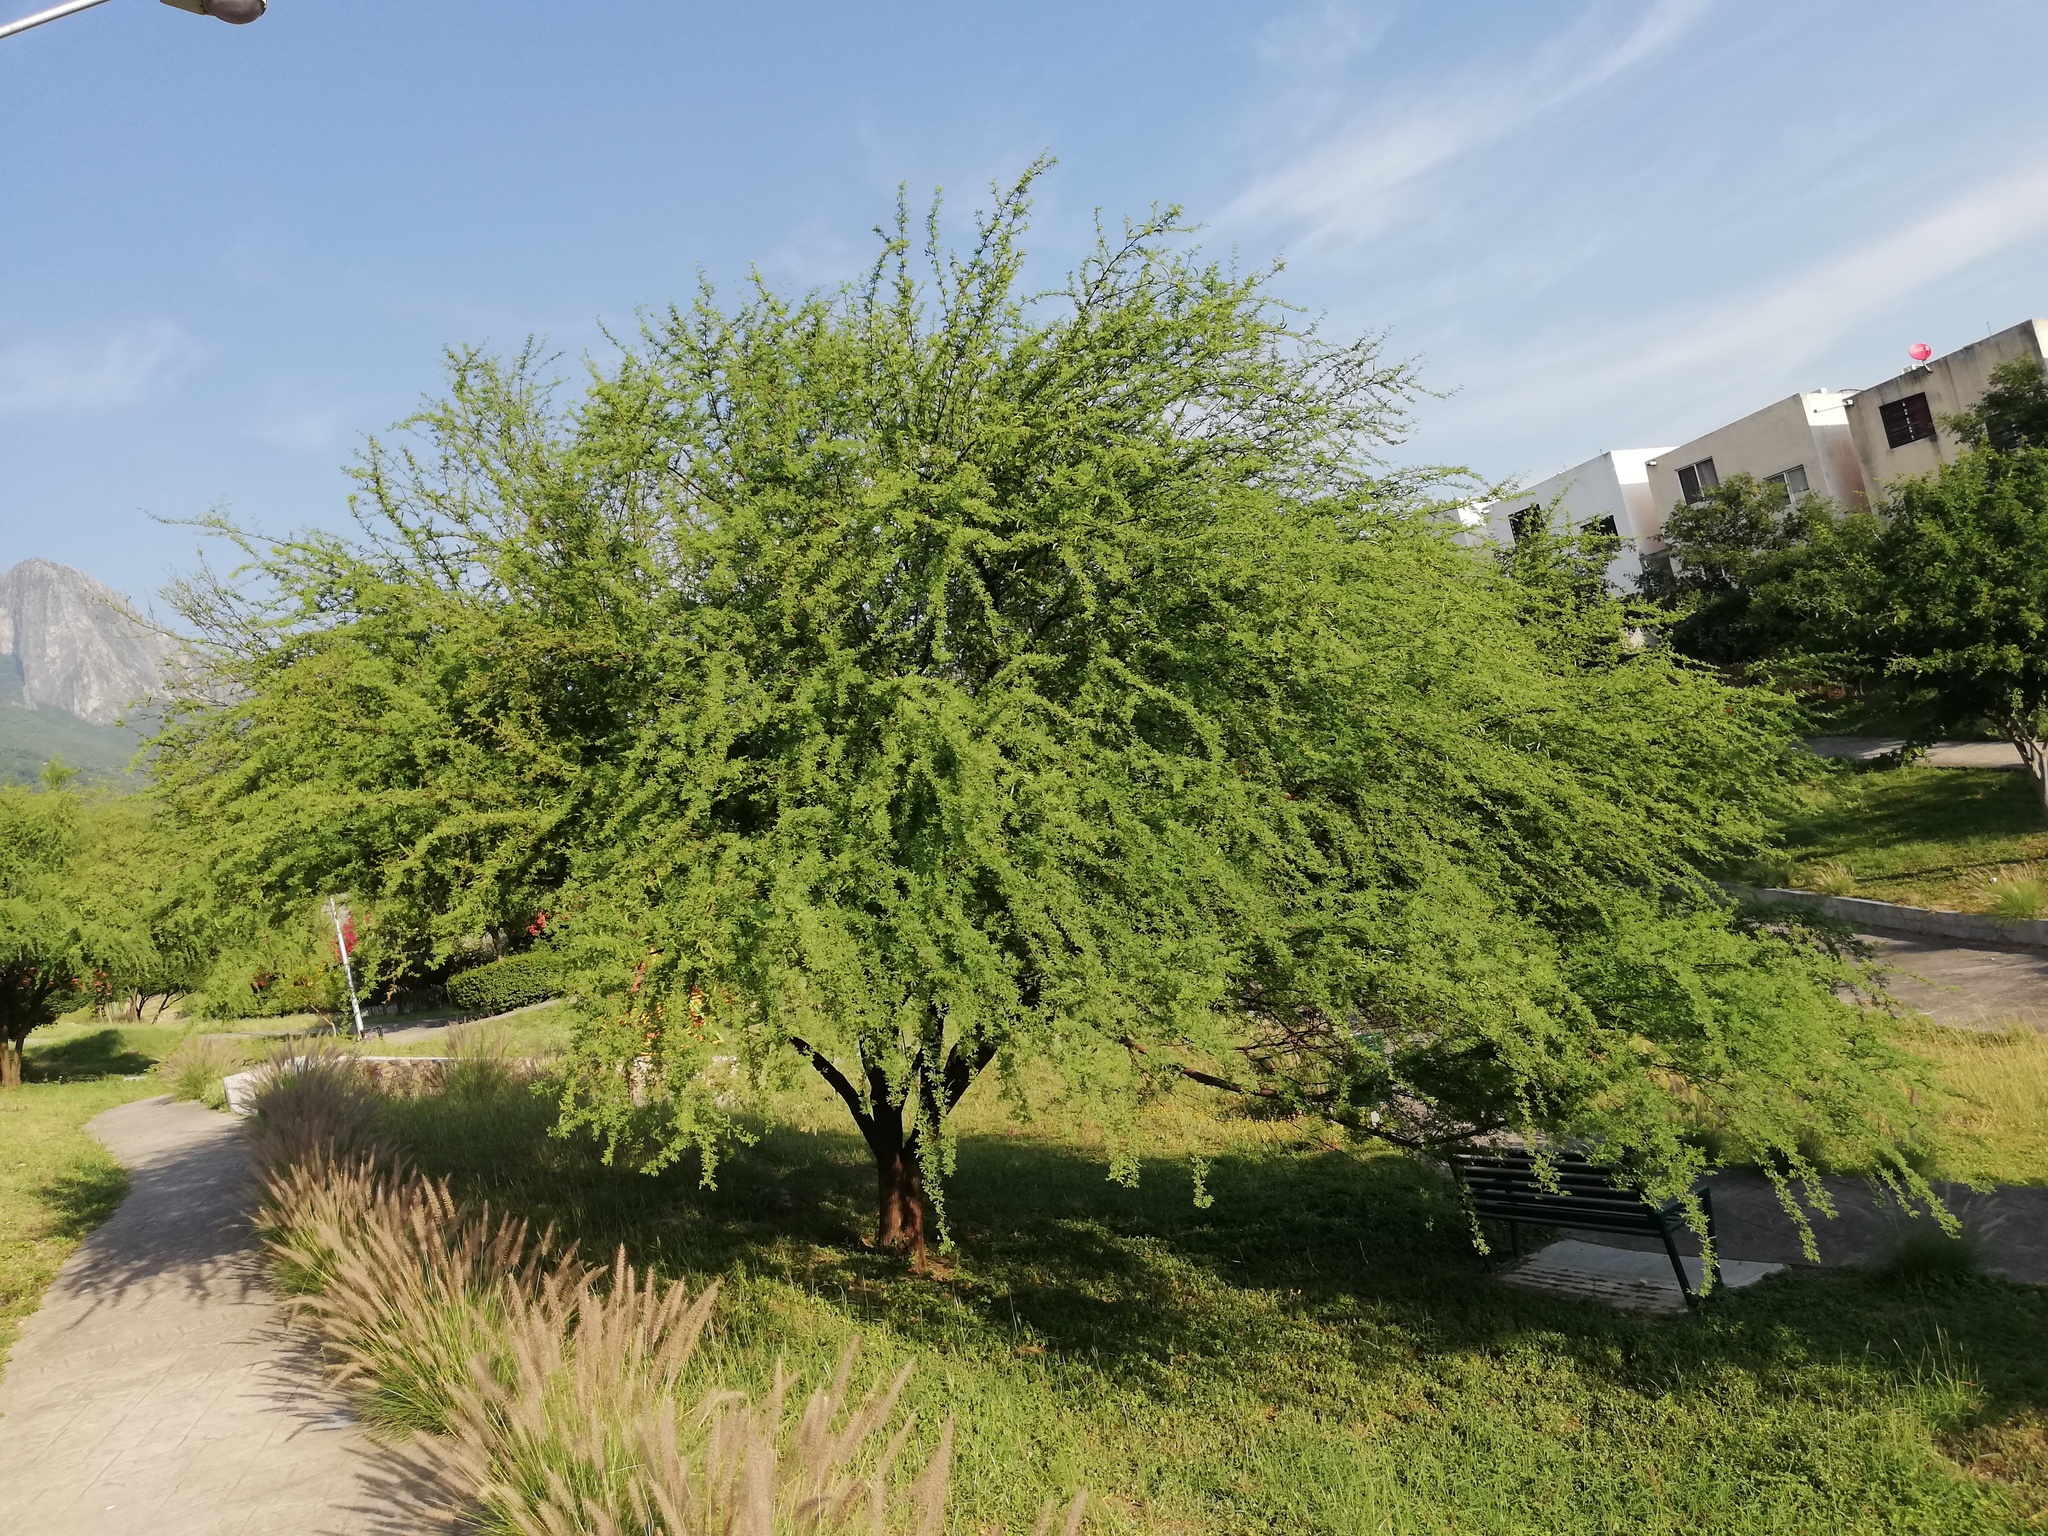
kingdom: Plantae
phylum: Tracheophyta
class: Magnoliopsida
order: Fabales
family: Fabaceae
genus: Vachellia
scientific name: Vachellia farnesiana
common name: Sweet acacia
